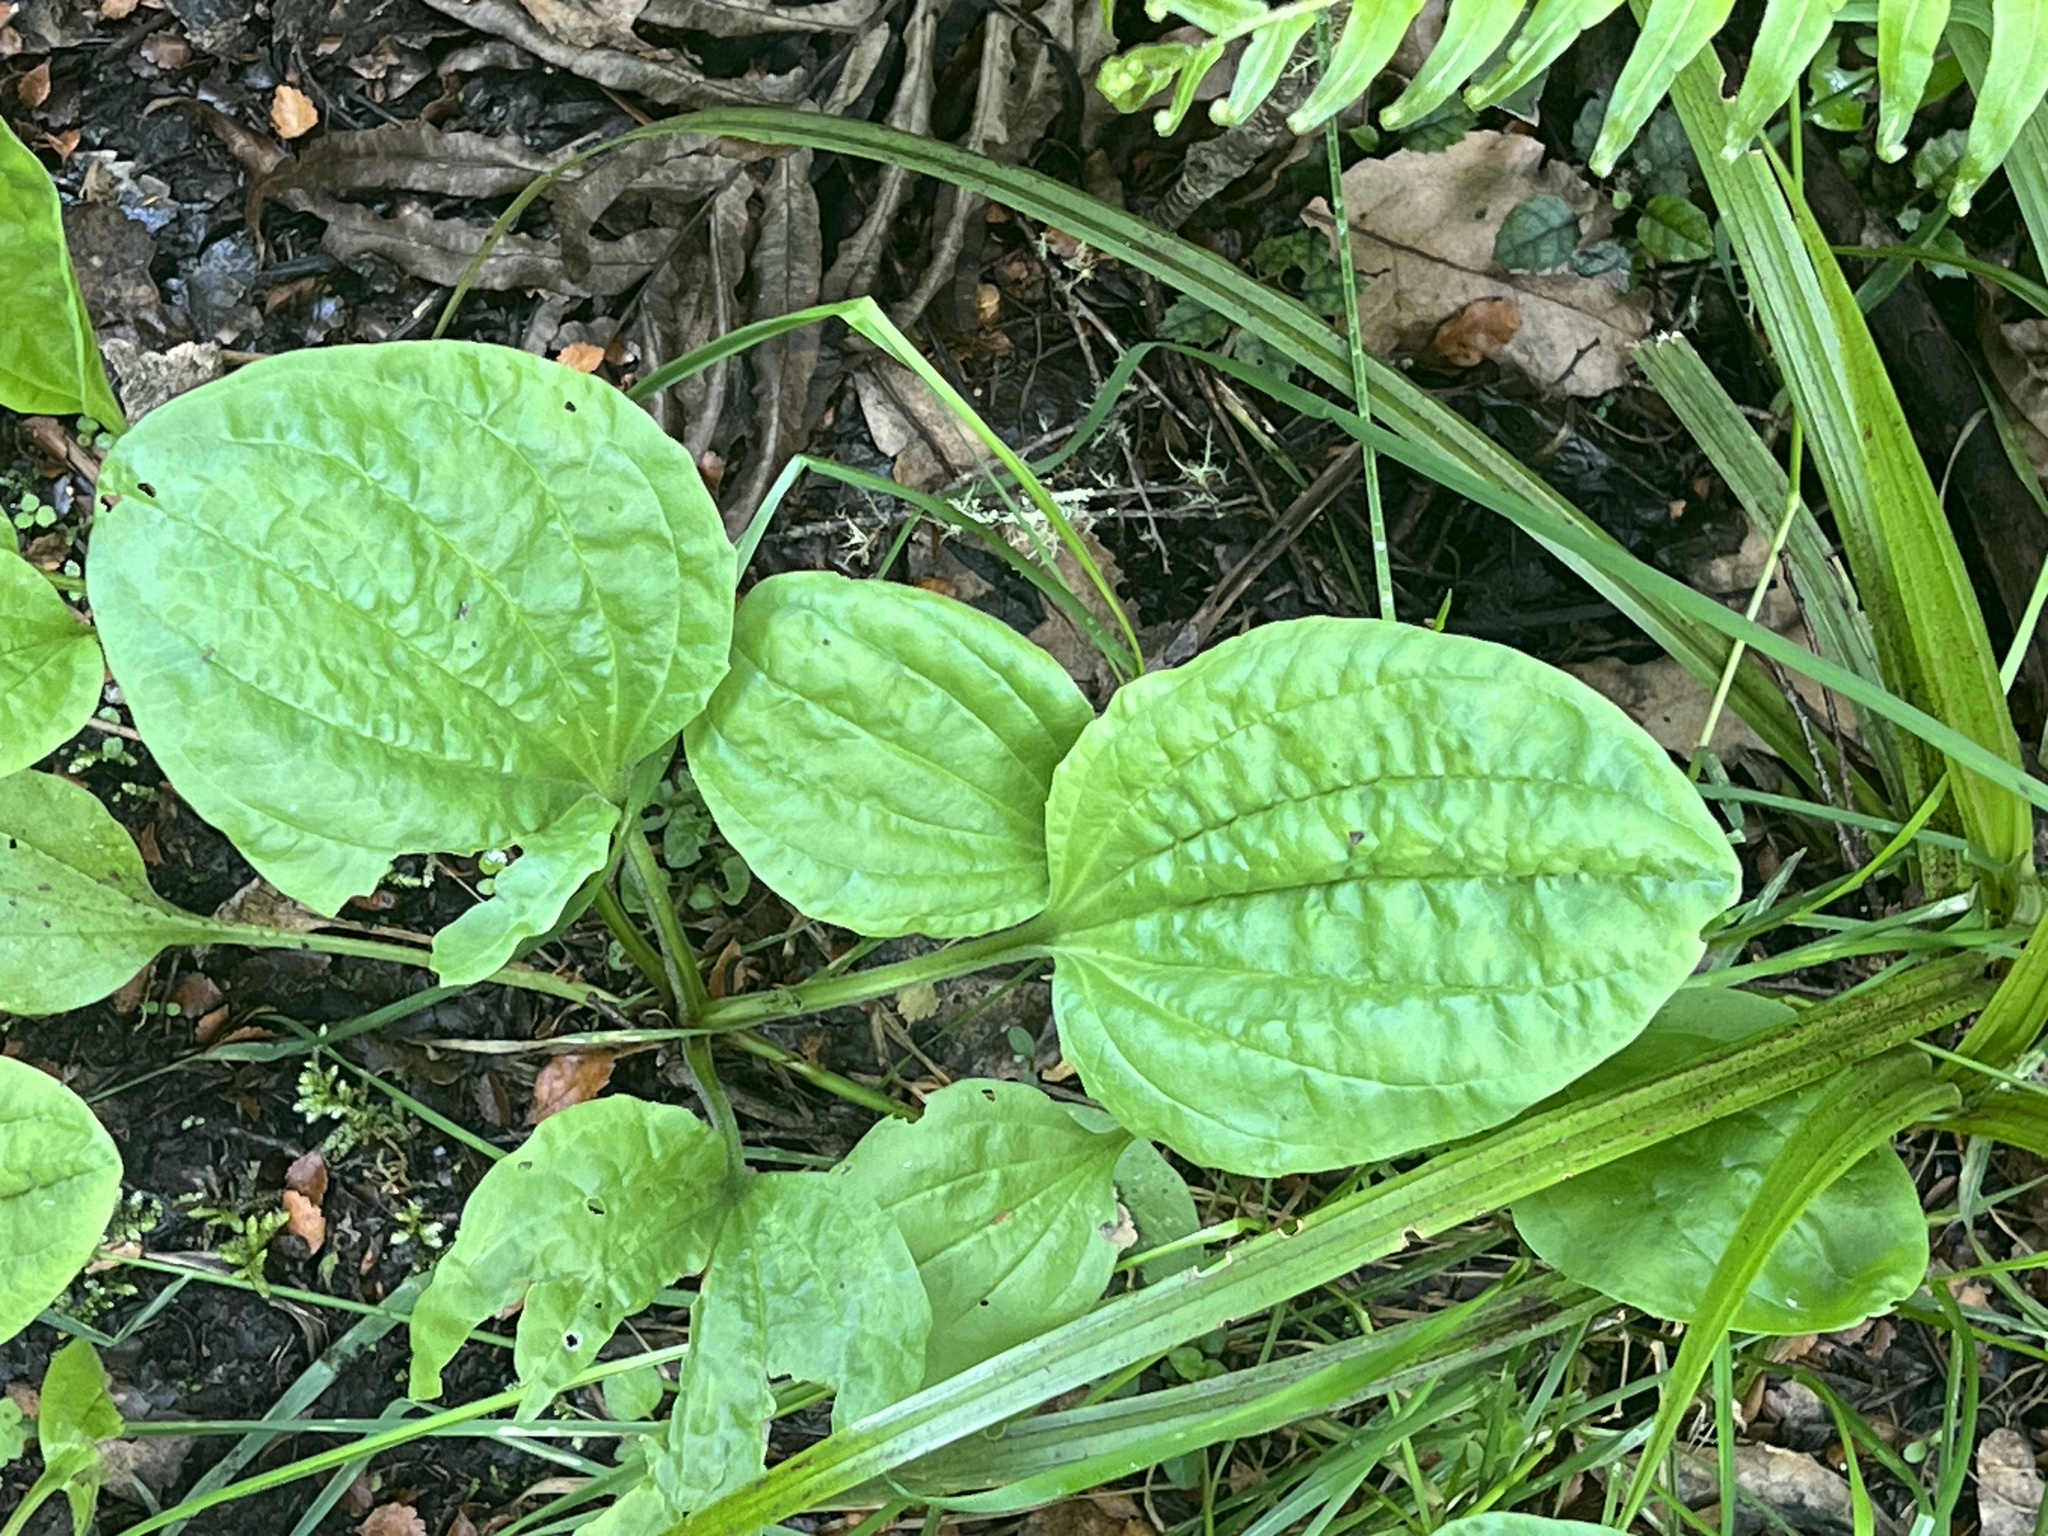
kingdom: Plantae
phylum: Tracheophyta
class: Magnoliopsida
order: Lamiales
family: Plantaginaceae
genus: Plantago
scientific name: Plantago major
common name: Common plantain
